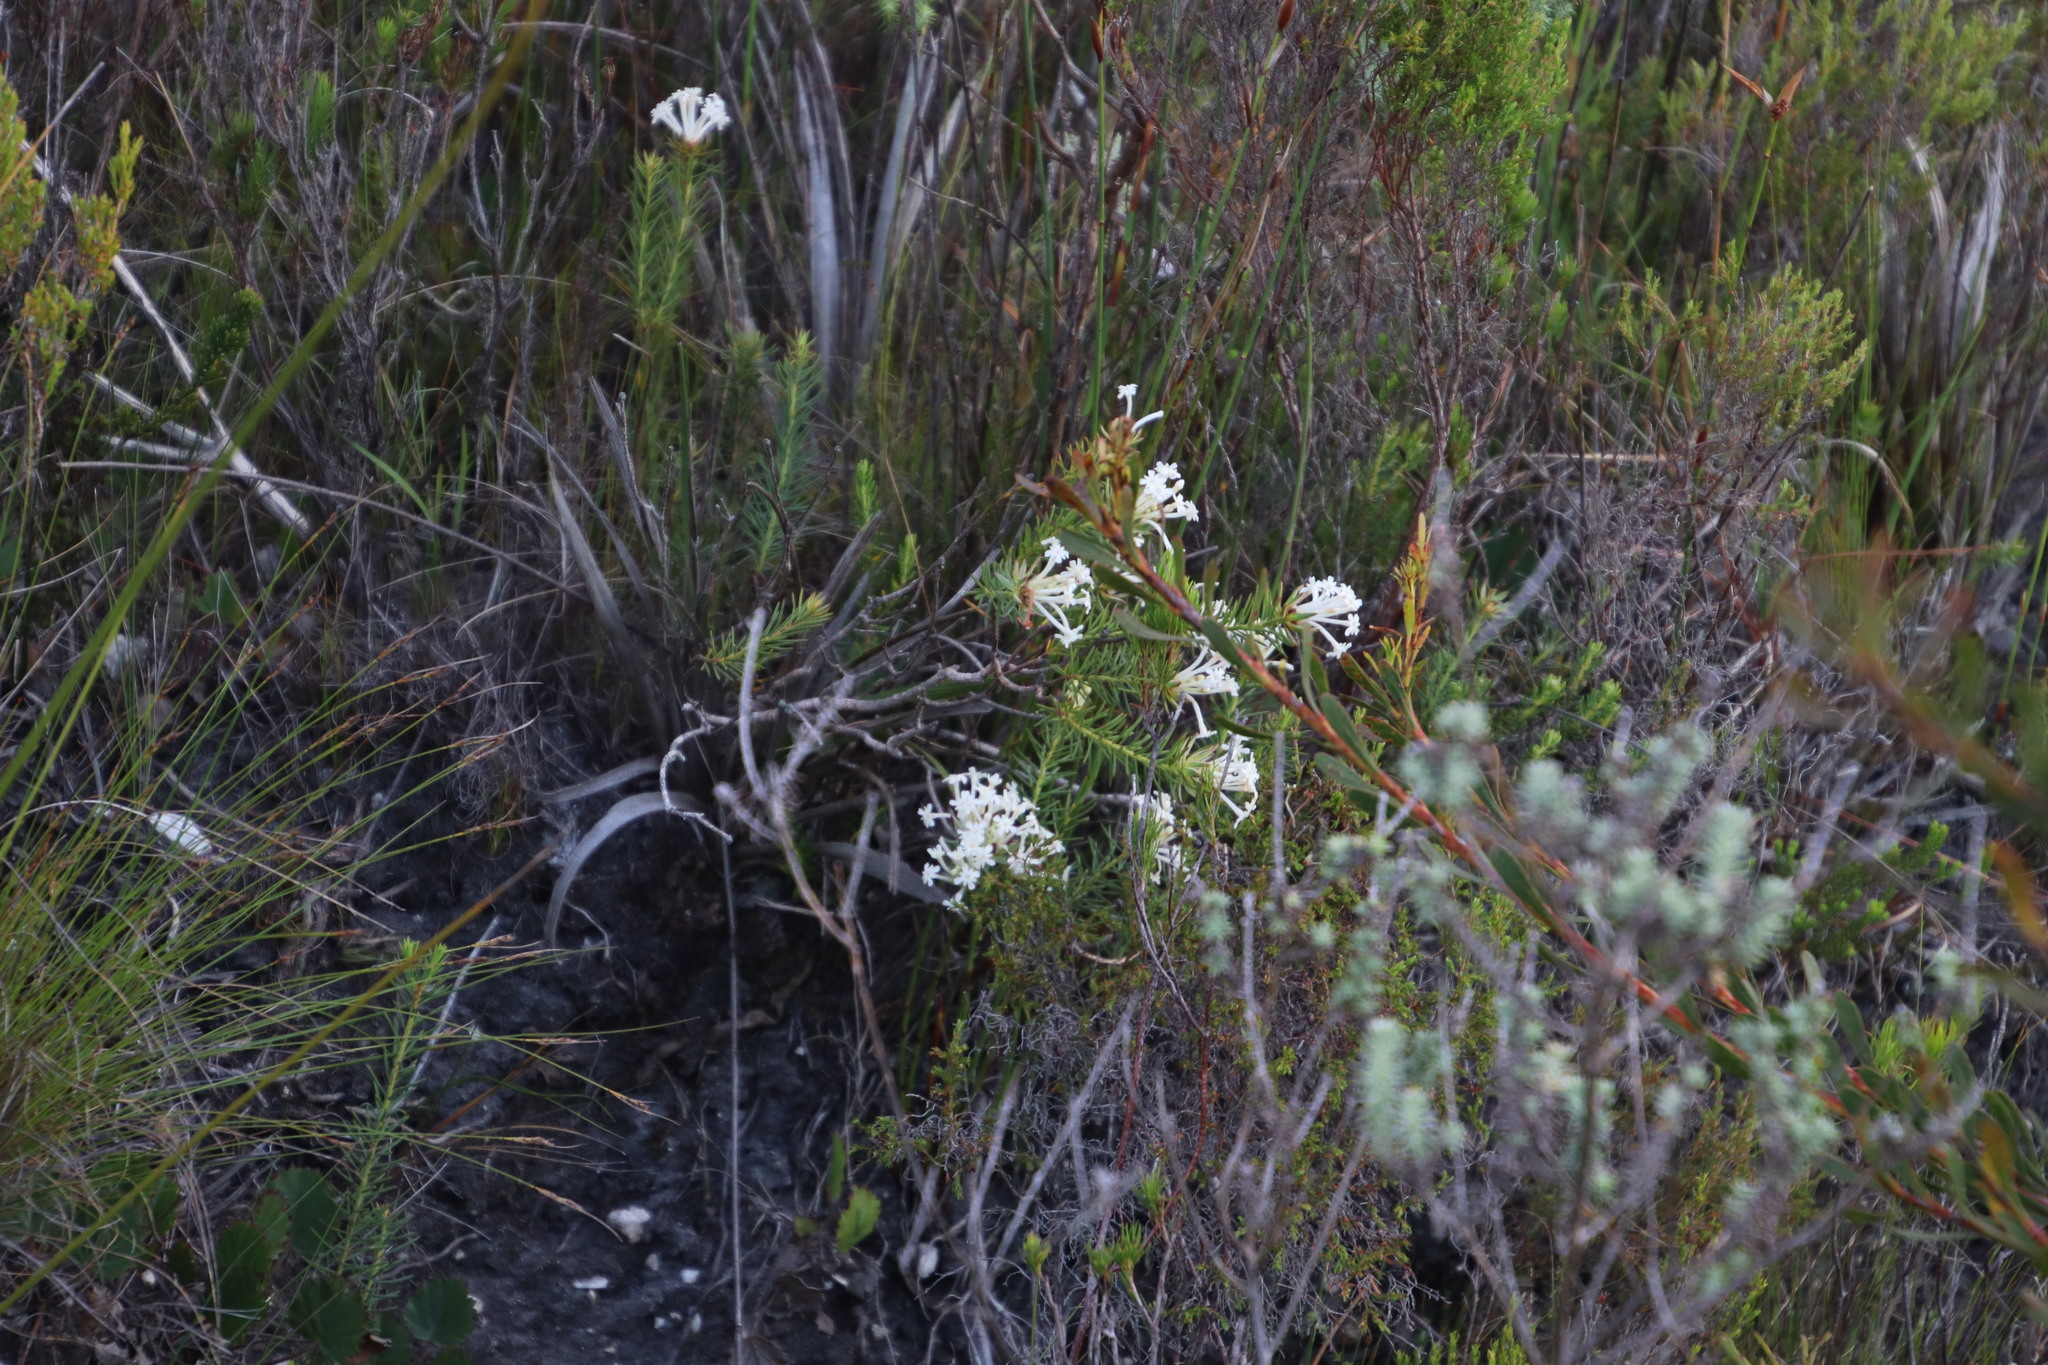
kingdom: Plantae
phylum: Tracheophyta
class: Magnoliopsida
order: Malvales
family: Thymelaeaceae
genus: Gnidia
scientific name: Gnidia pinifolia
